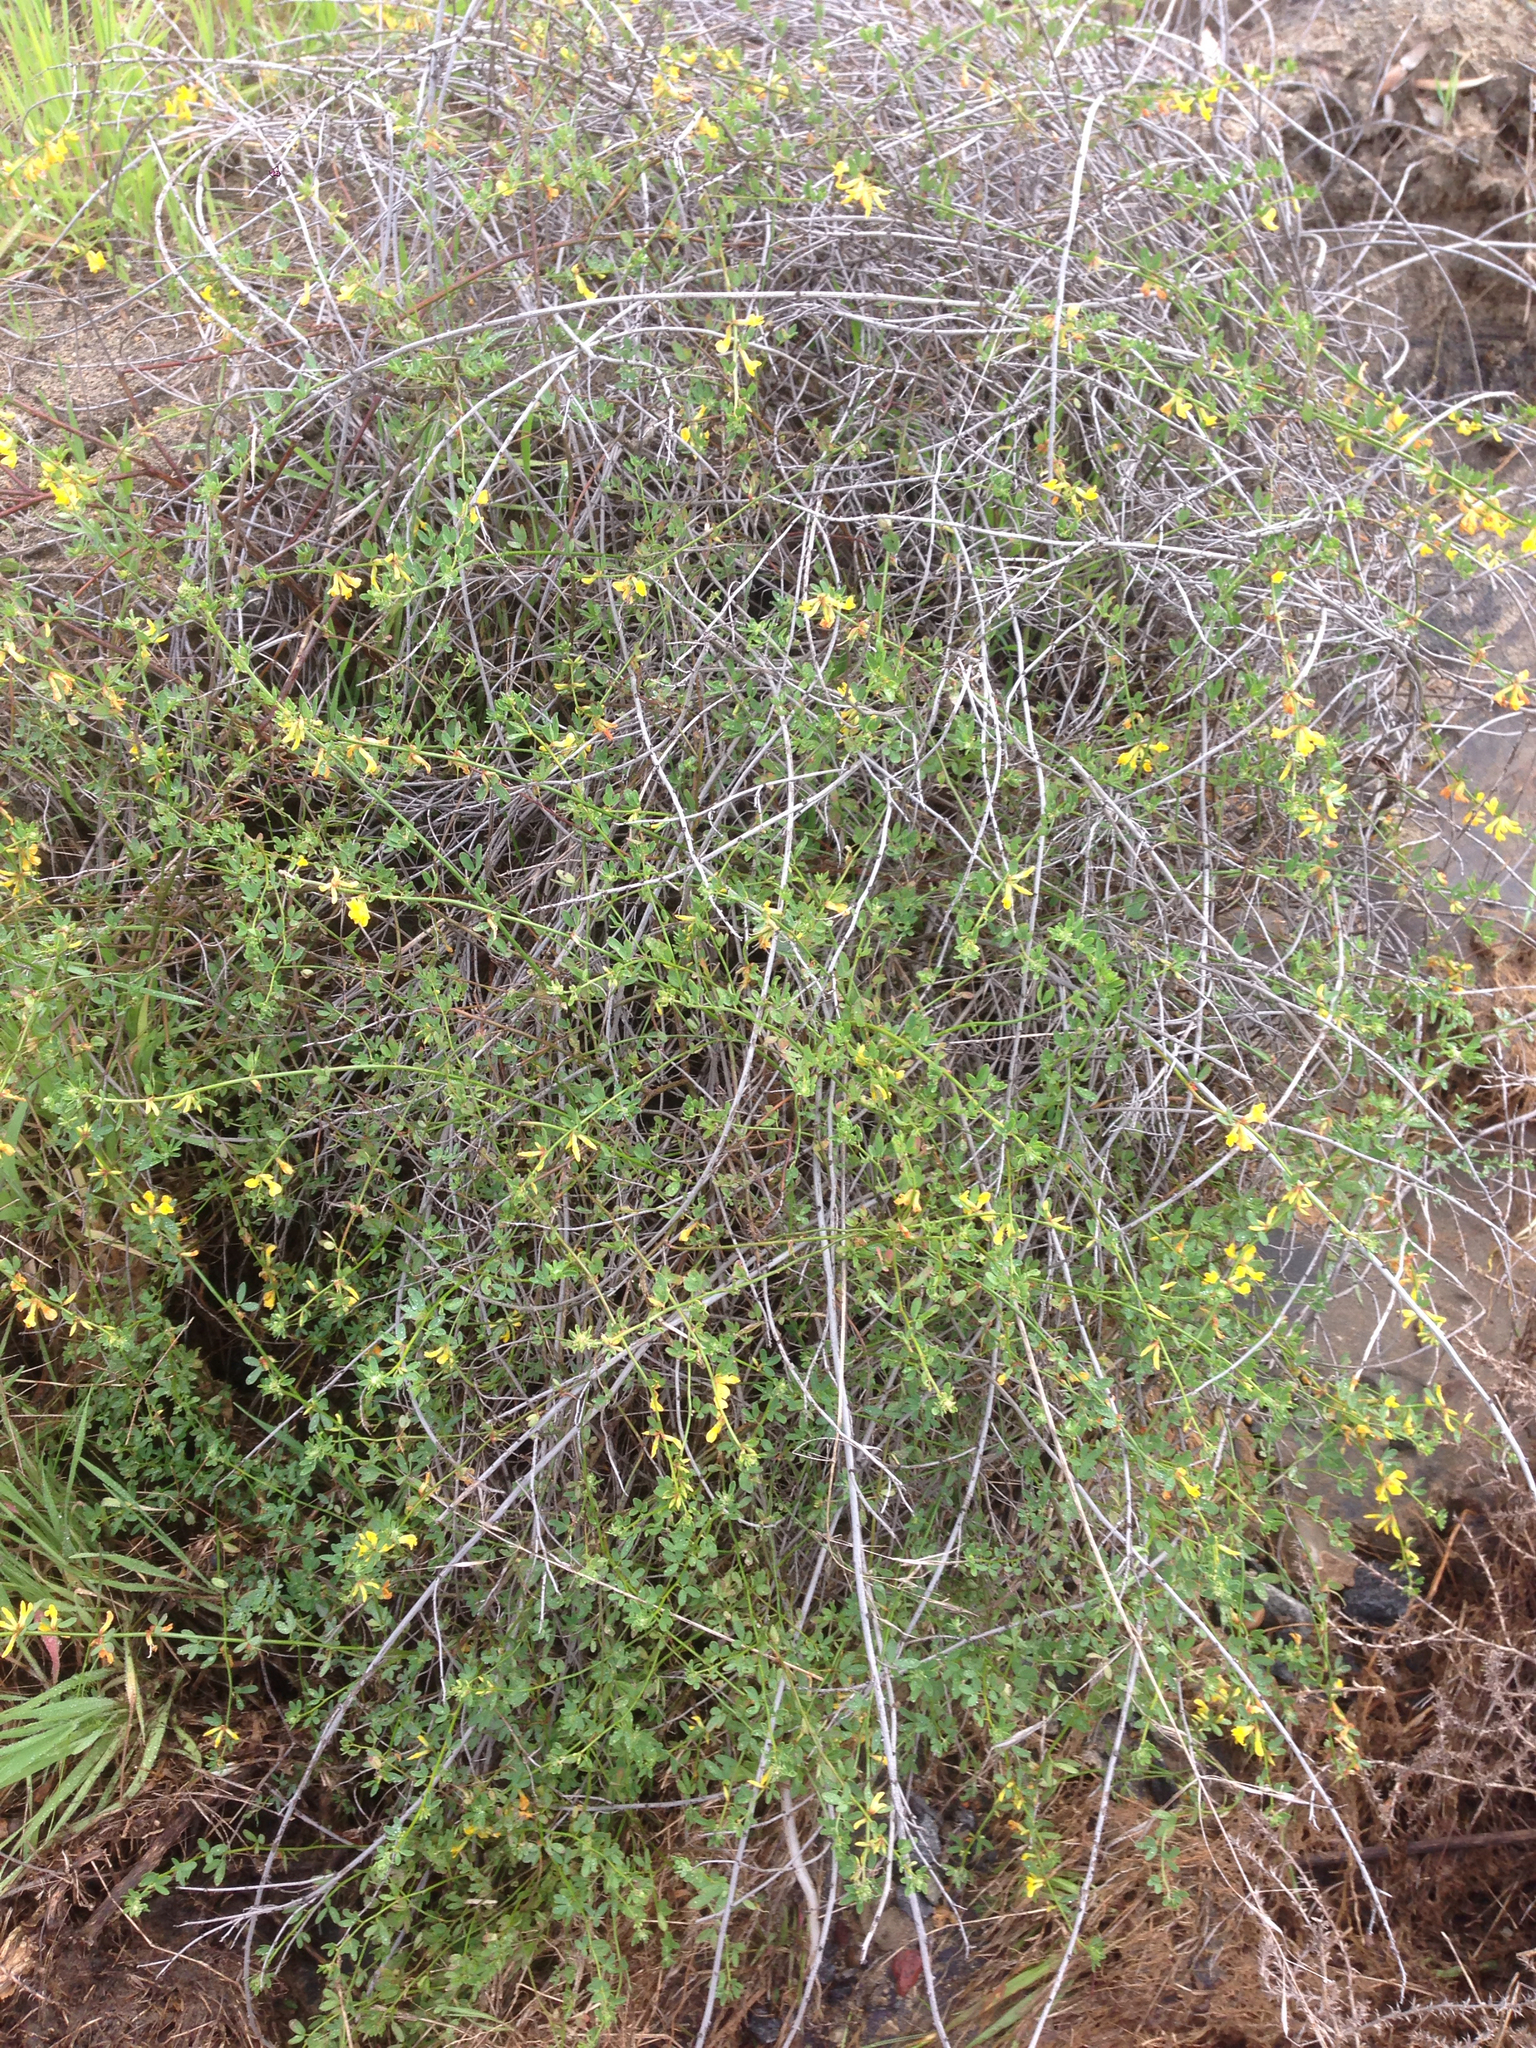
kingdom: Plantae
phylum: Tracheophyta
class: Magnoliopsida
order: Fabales
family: Fabaceae
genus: Acmispon
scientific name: Acmispon glaber
